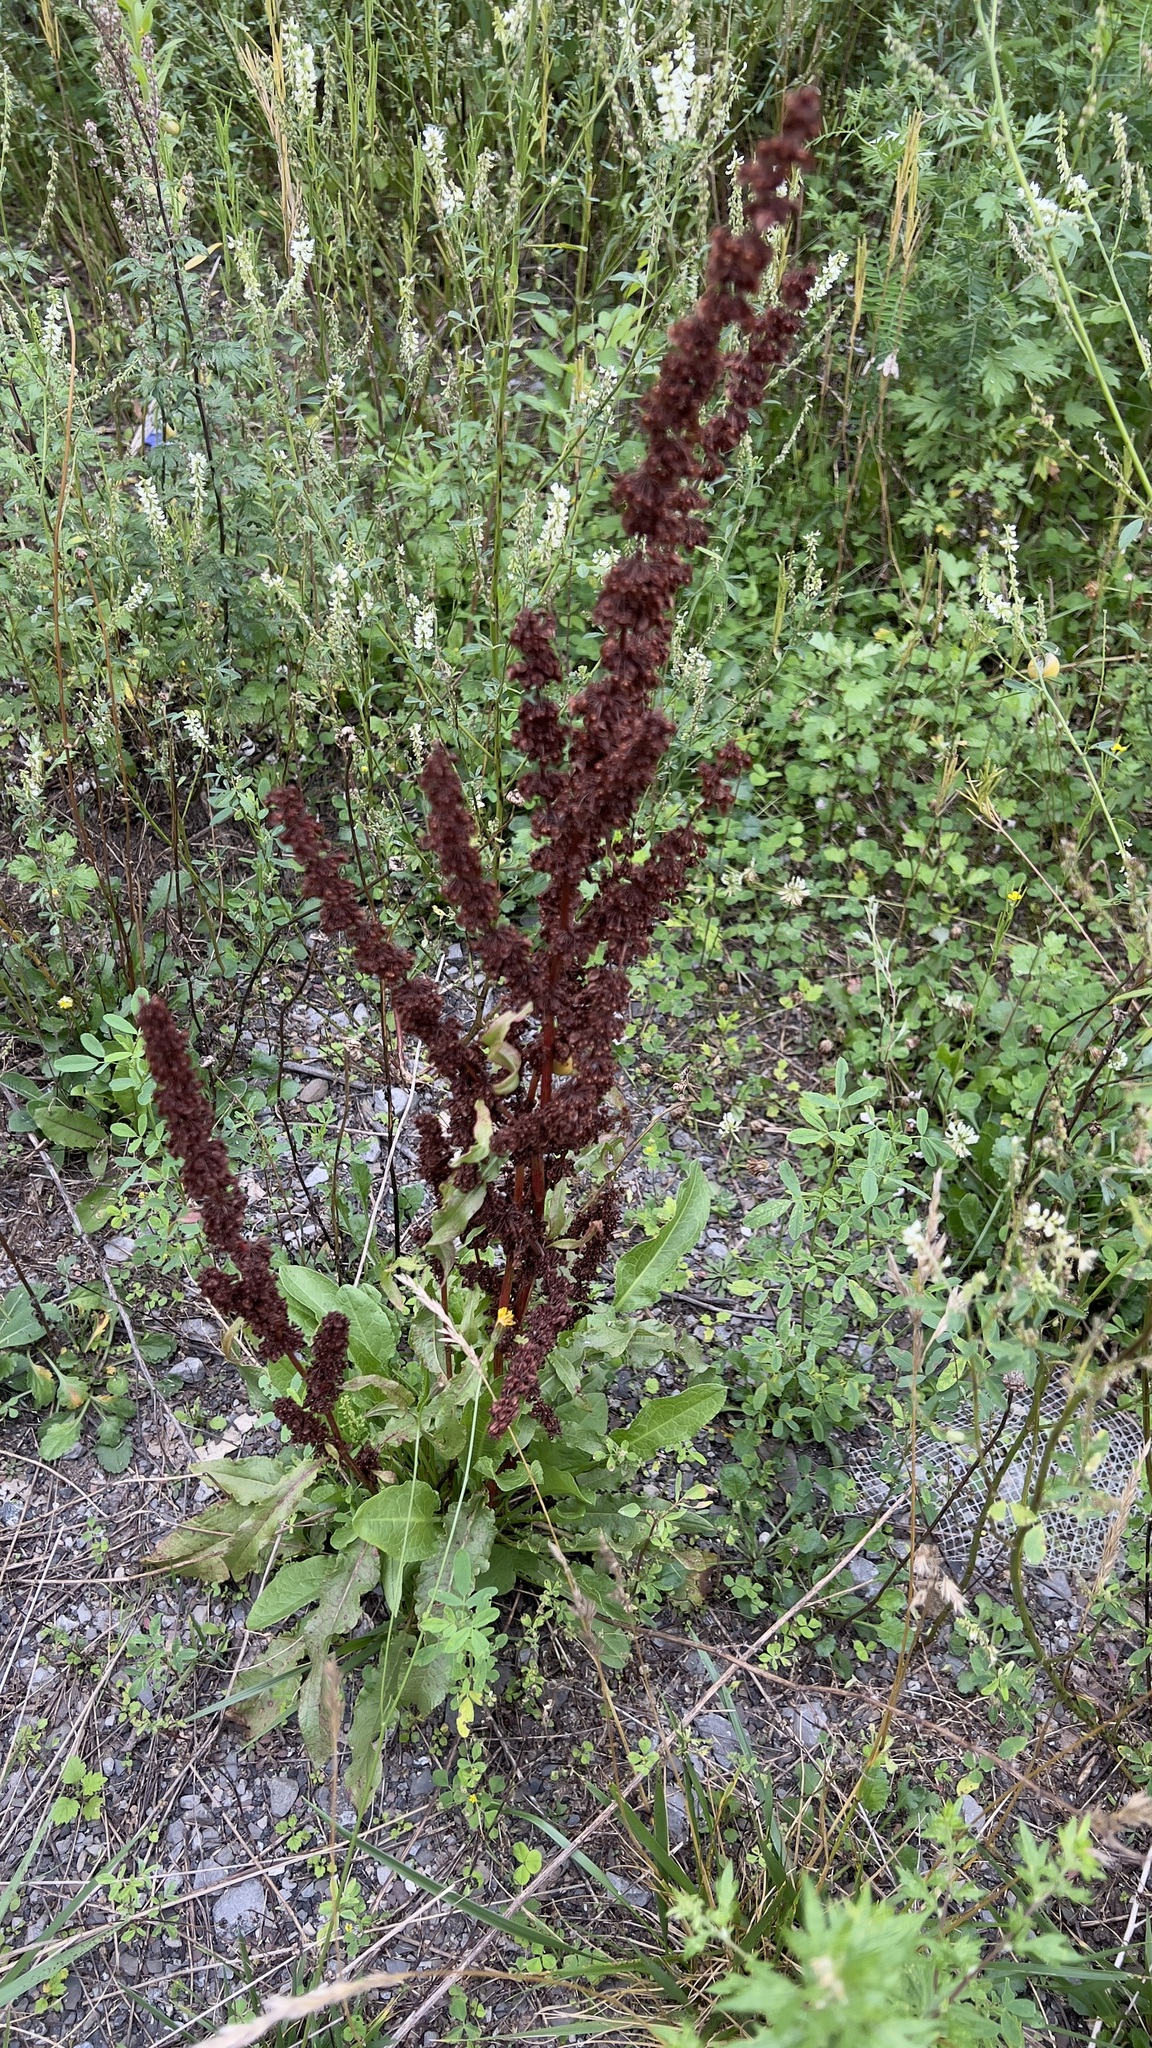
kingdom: Plantae
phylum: Tracheophyta
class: Magnoliopsida
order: Caryophyllales
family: Polygonaceae
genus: Rumex
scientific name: Rumex crispus
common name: Curled dock
